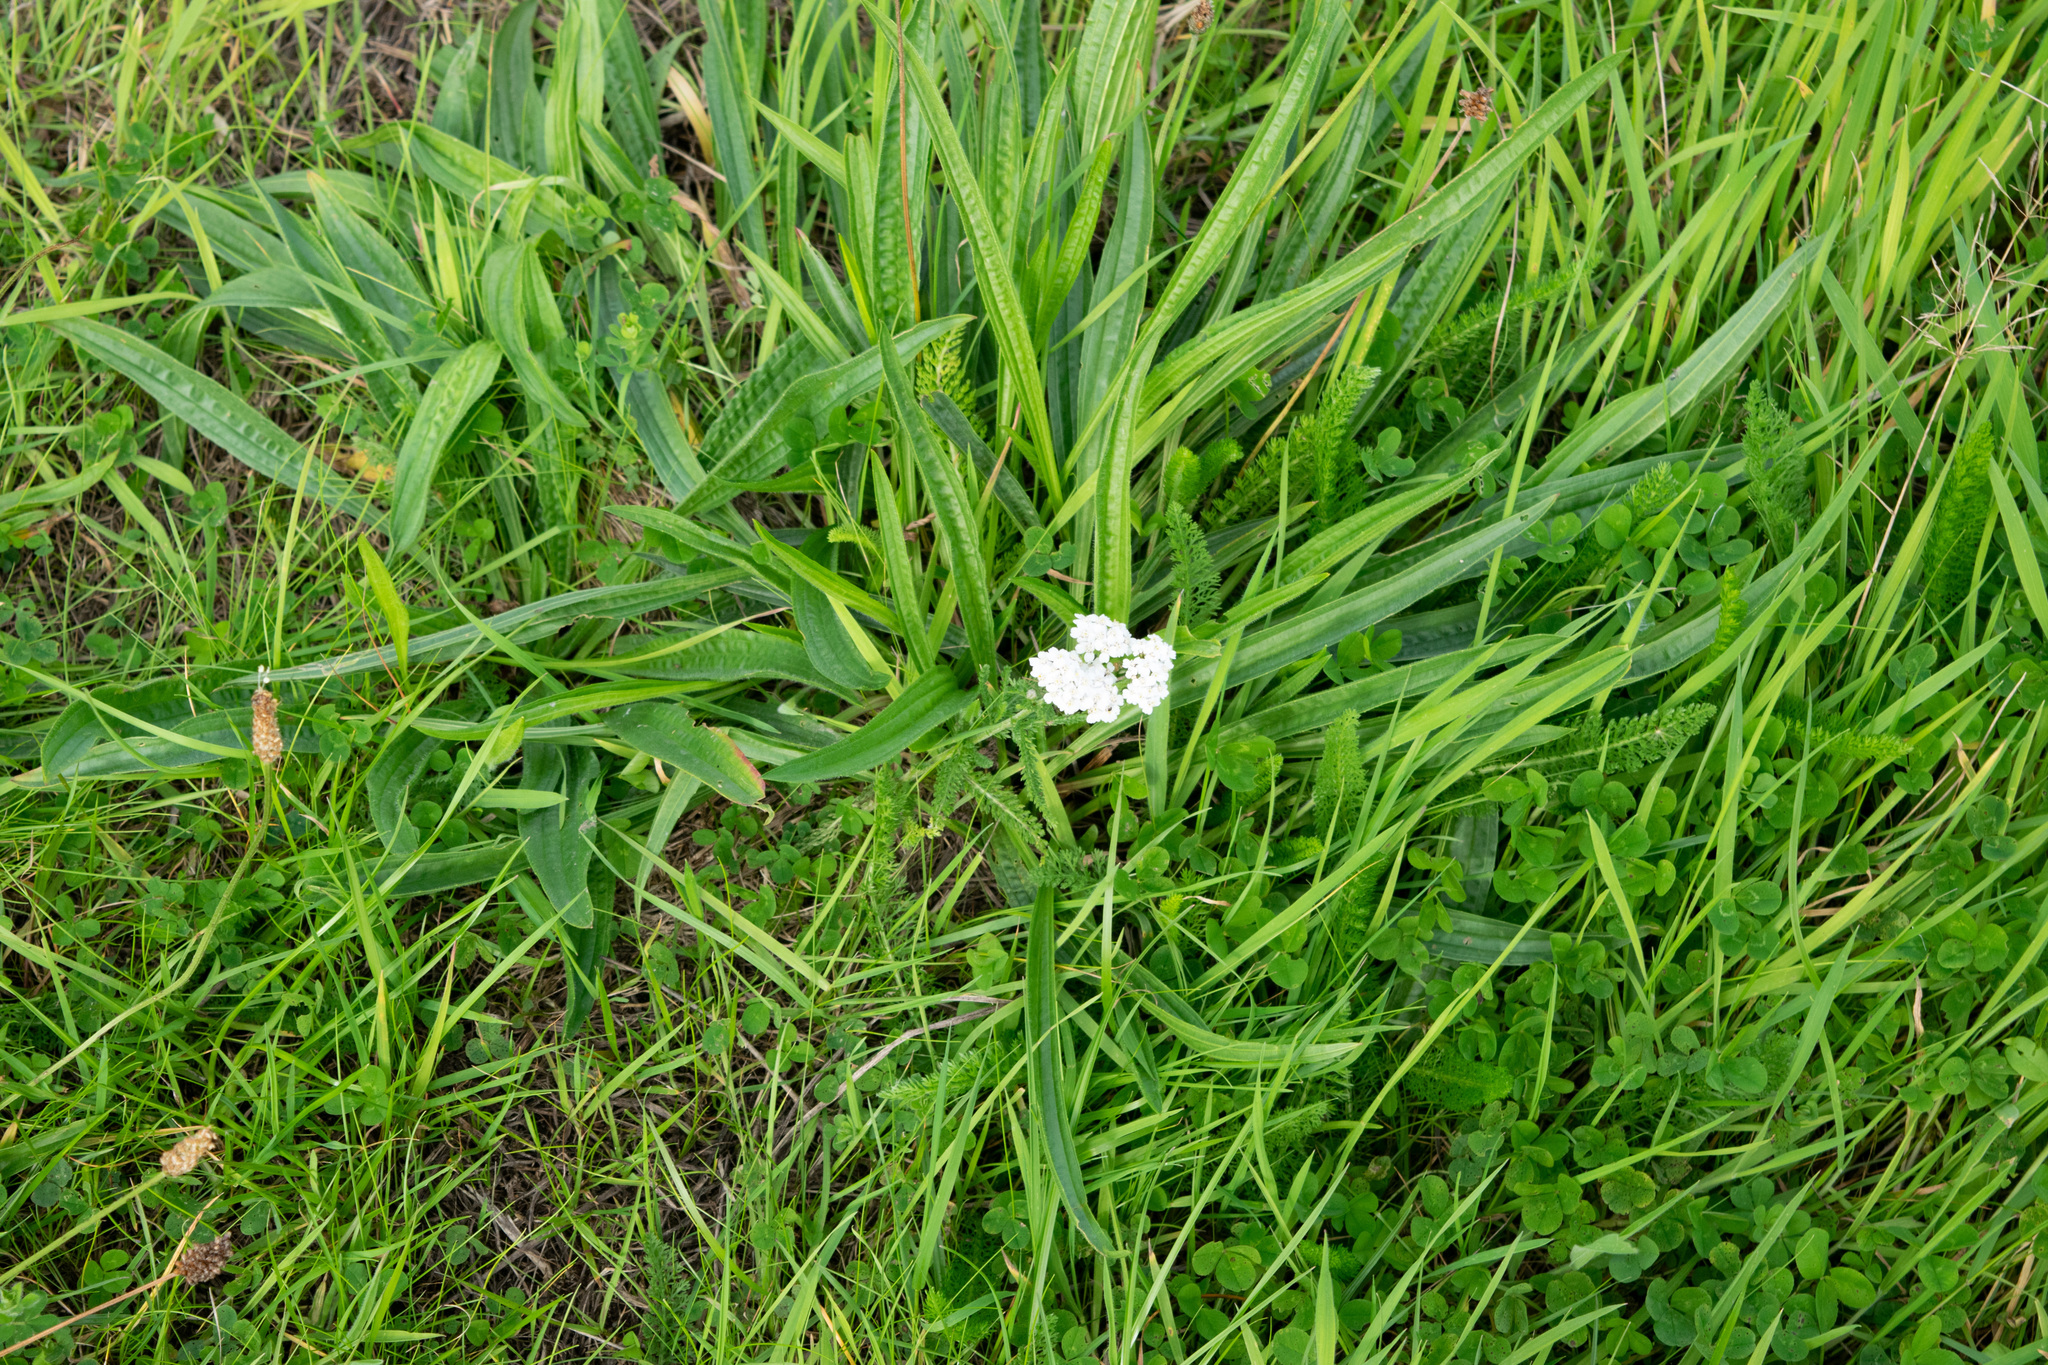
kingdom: Plantae
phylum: Tracheophyta
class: Magnoliopsida
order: Asterales
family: Asteraceae
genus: Achillea
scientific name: Achillea millefolium
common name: Yarrow
